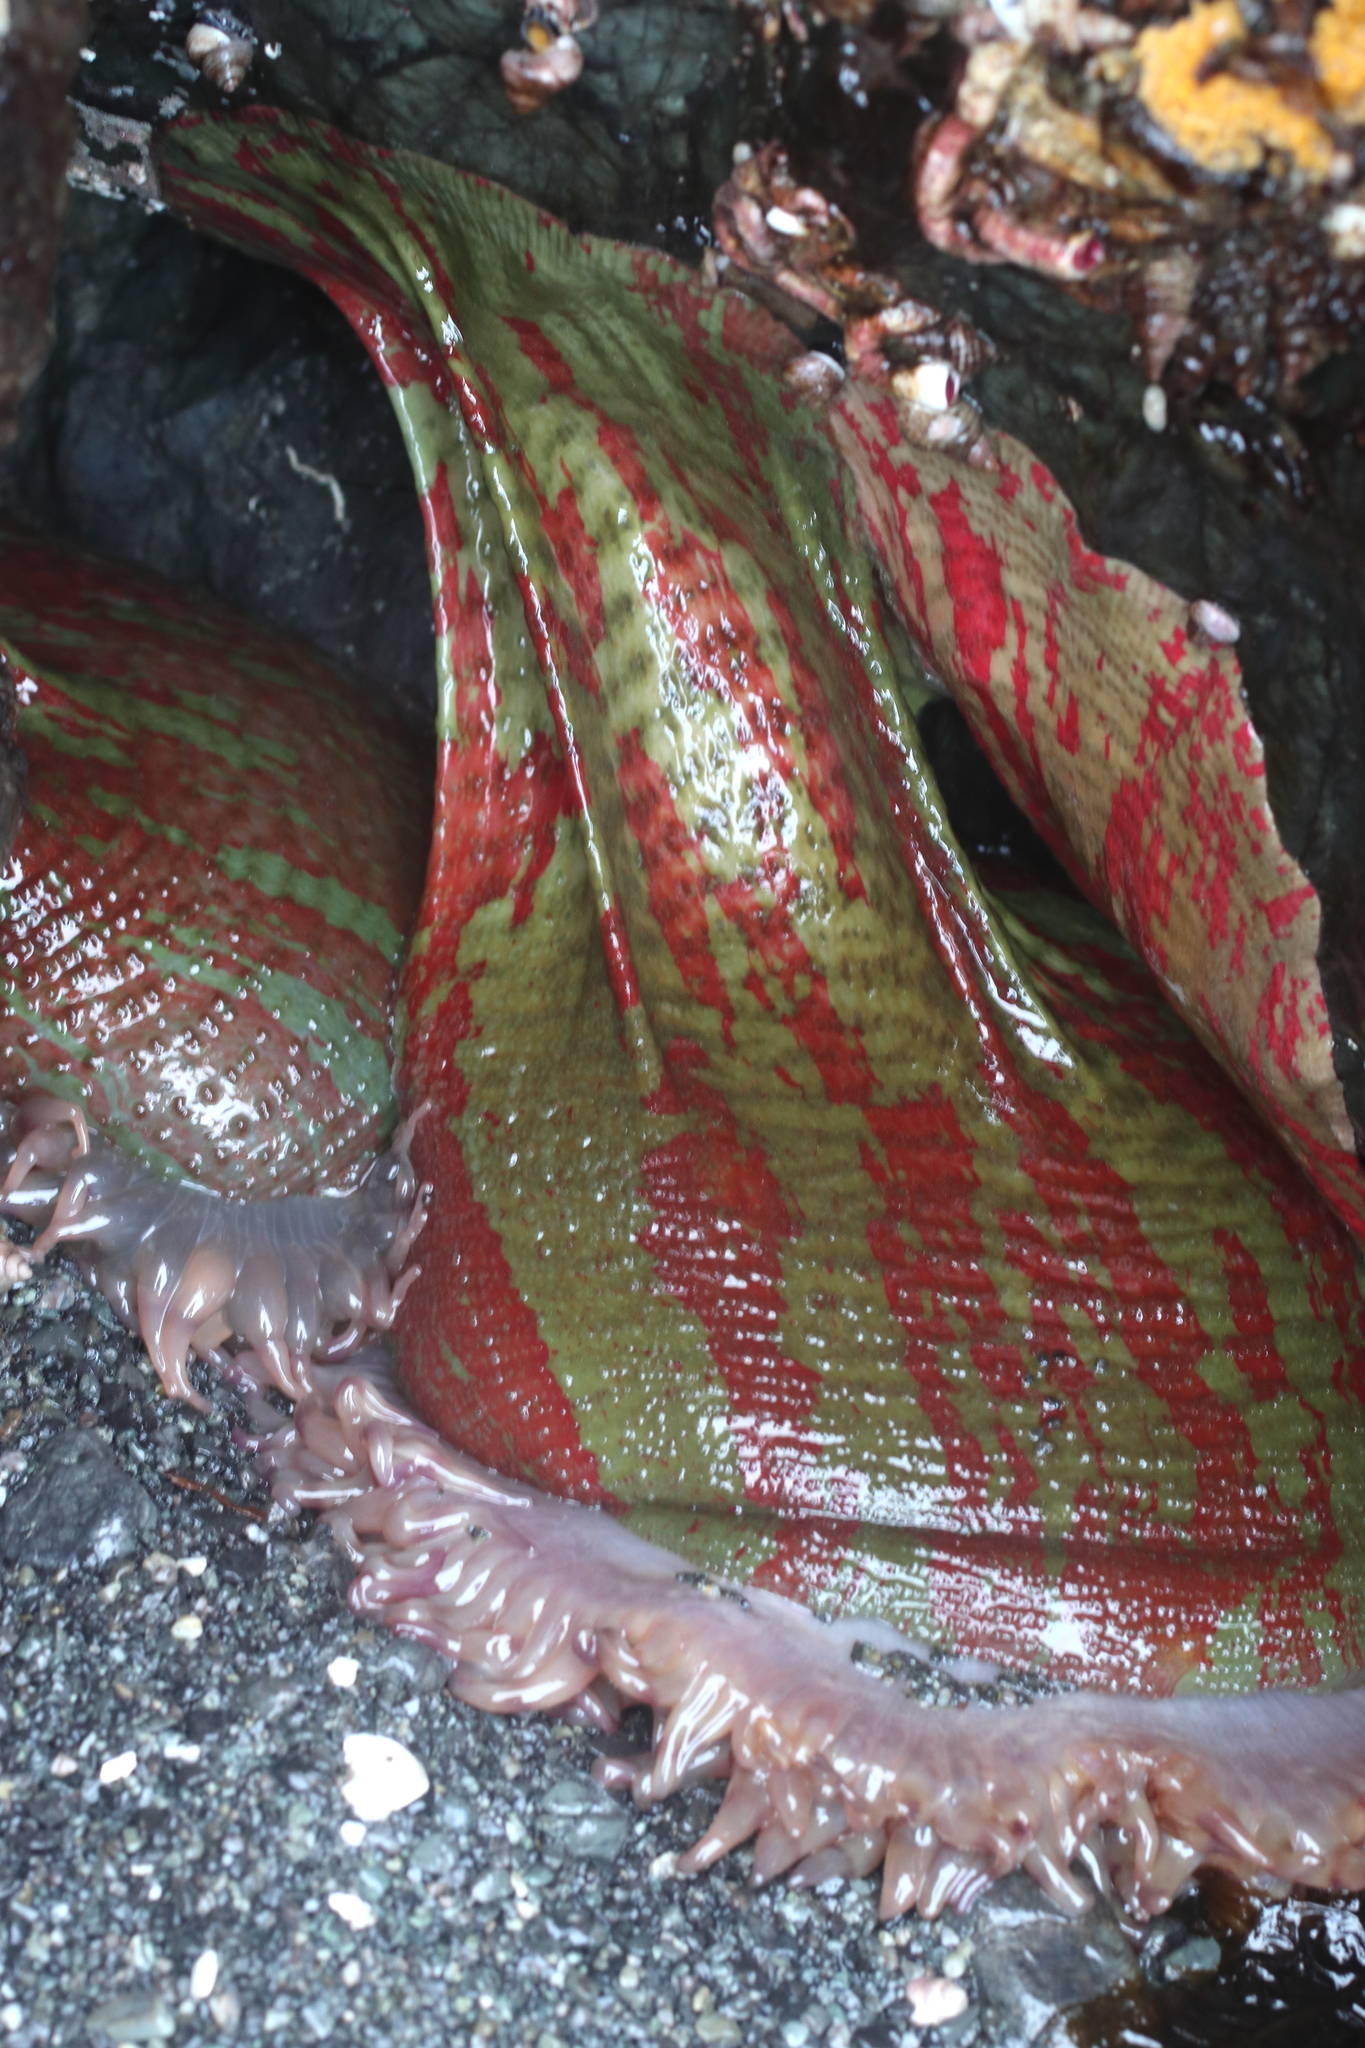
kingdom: Animalia
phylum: Cnidaria
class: Anthozoa
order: Actiniaria
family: Actiniidae
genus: Urticina
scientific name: Urticina grebelnyi
